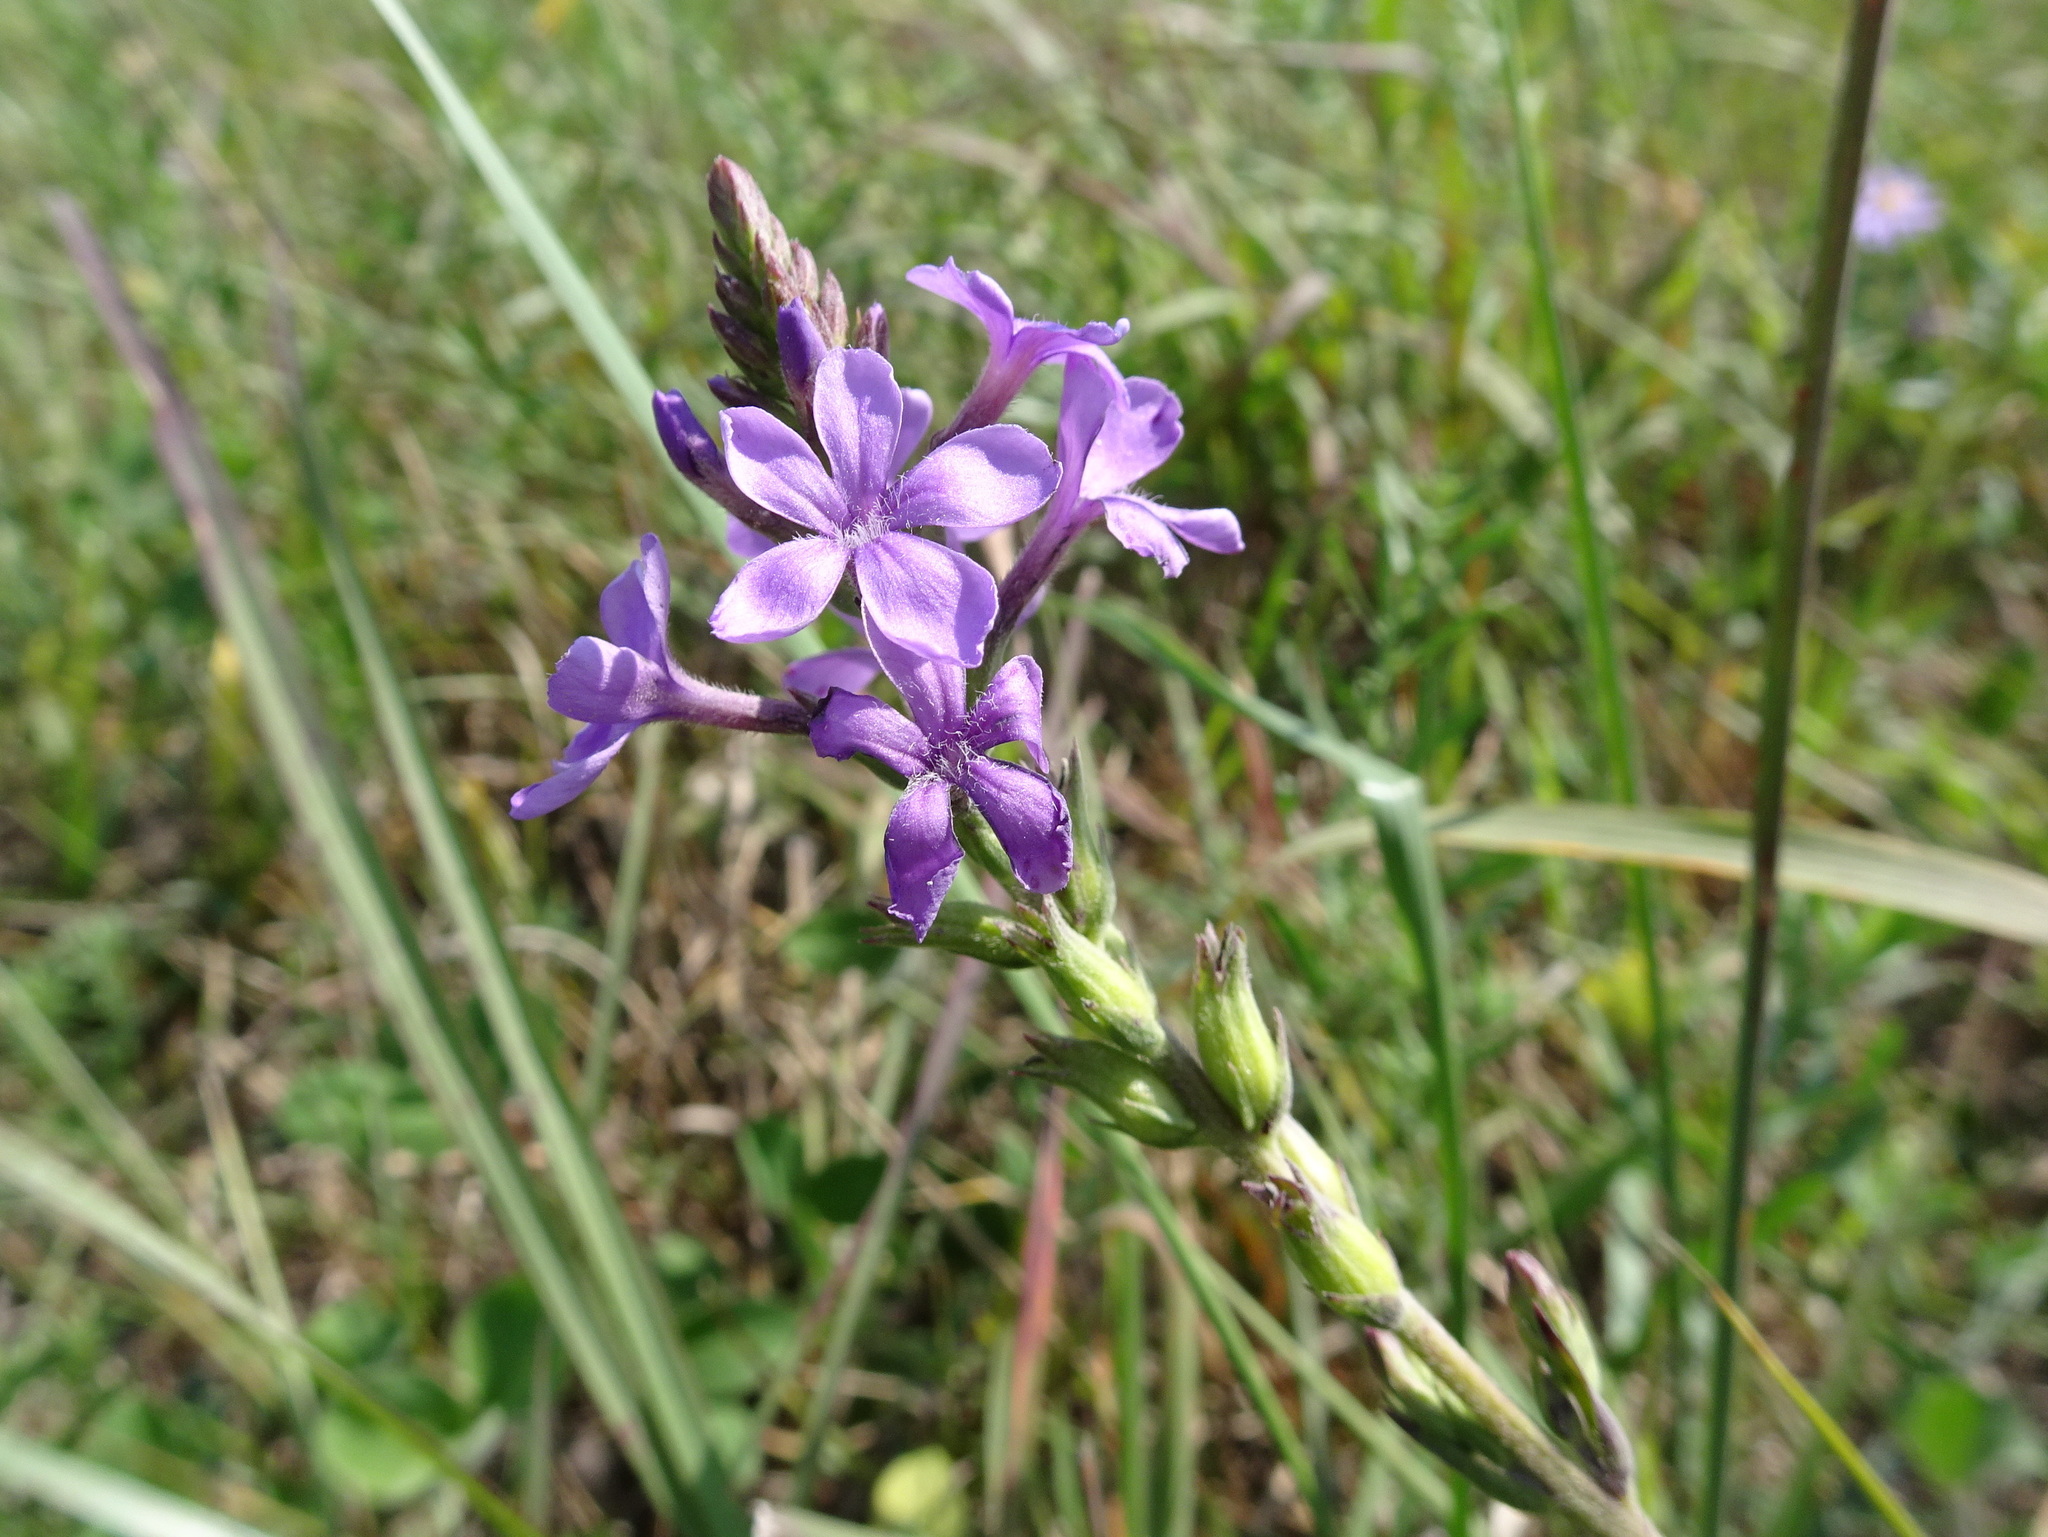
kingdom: Plantae
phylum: Tracheophyta
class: Magnoliopsida
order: Lamiales
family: Orobanchaceae
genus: Buchnera
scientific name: Buchnera americana
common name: American bluehearts
